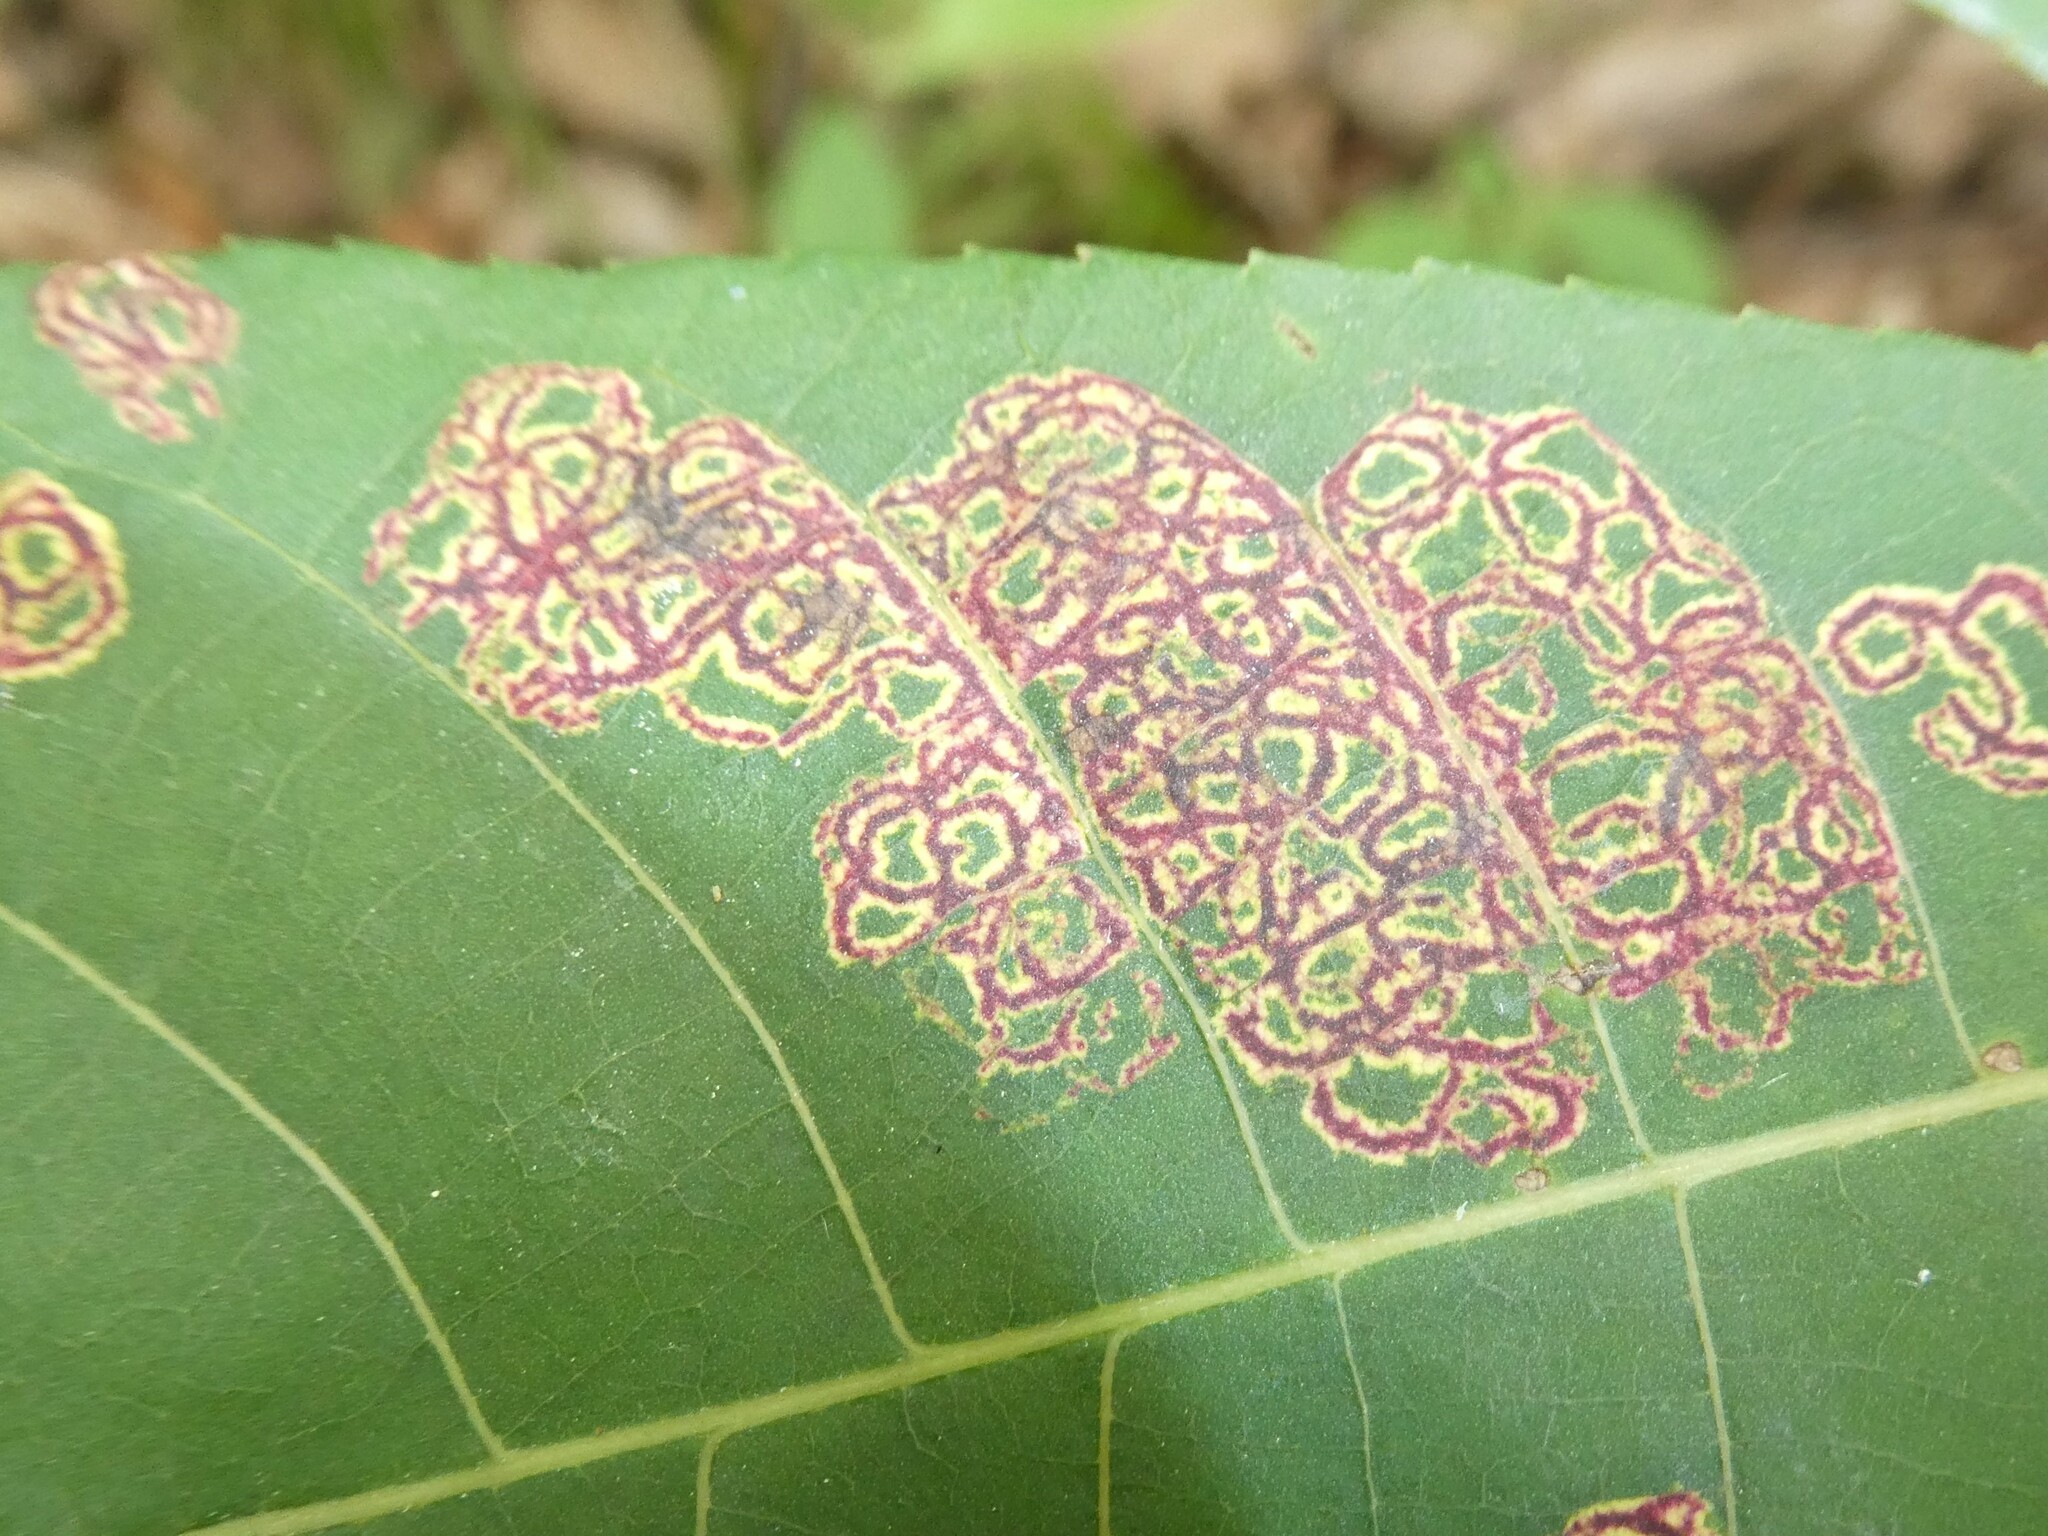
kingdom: Animalia
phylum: Arthropoda
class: Insecta
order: Diptera
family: Cecidomyiidae
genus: Gliaspilota
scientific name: Gliaspilota glutinosa
